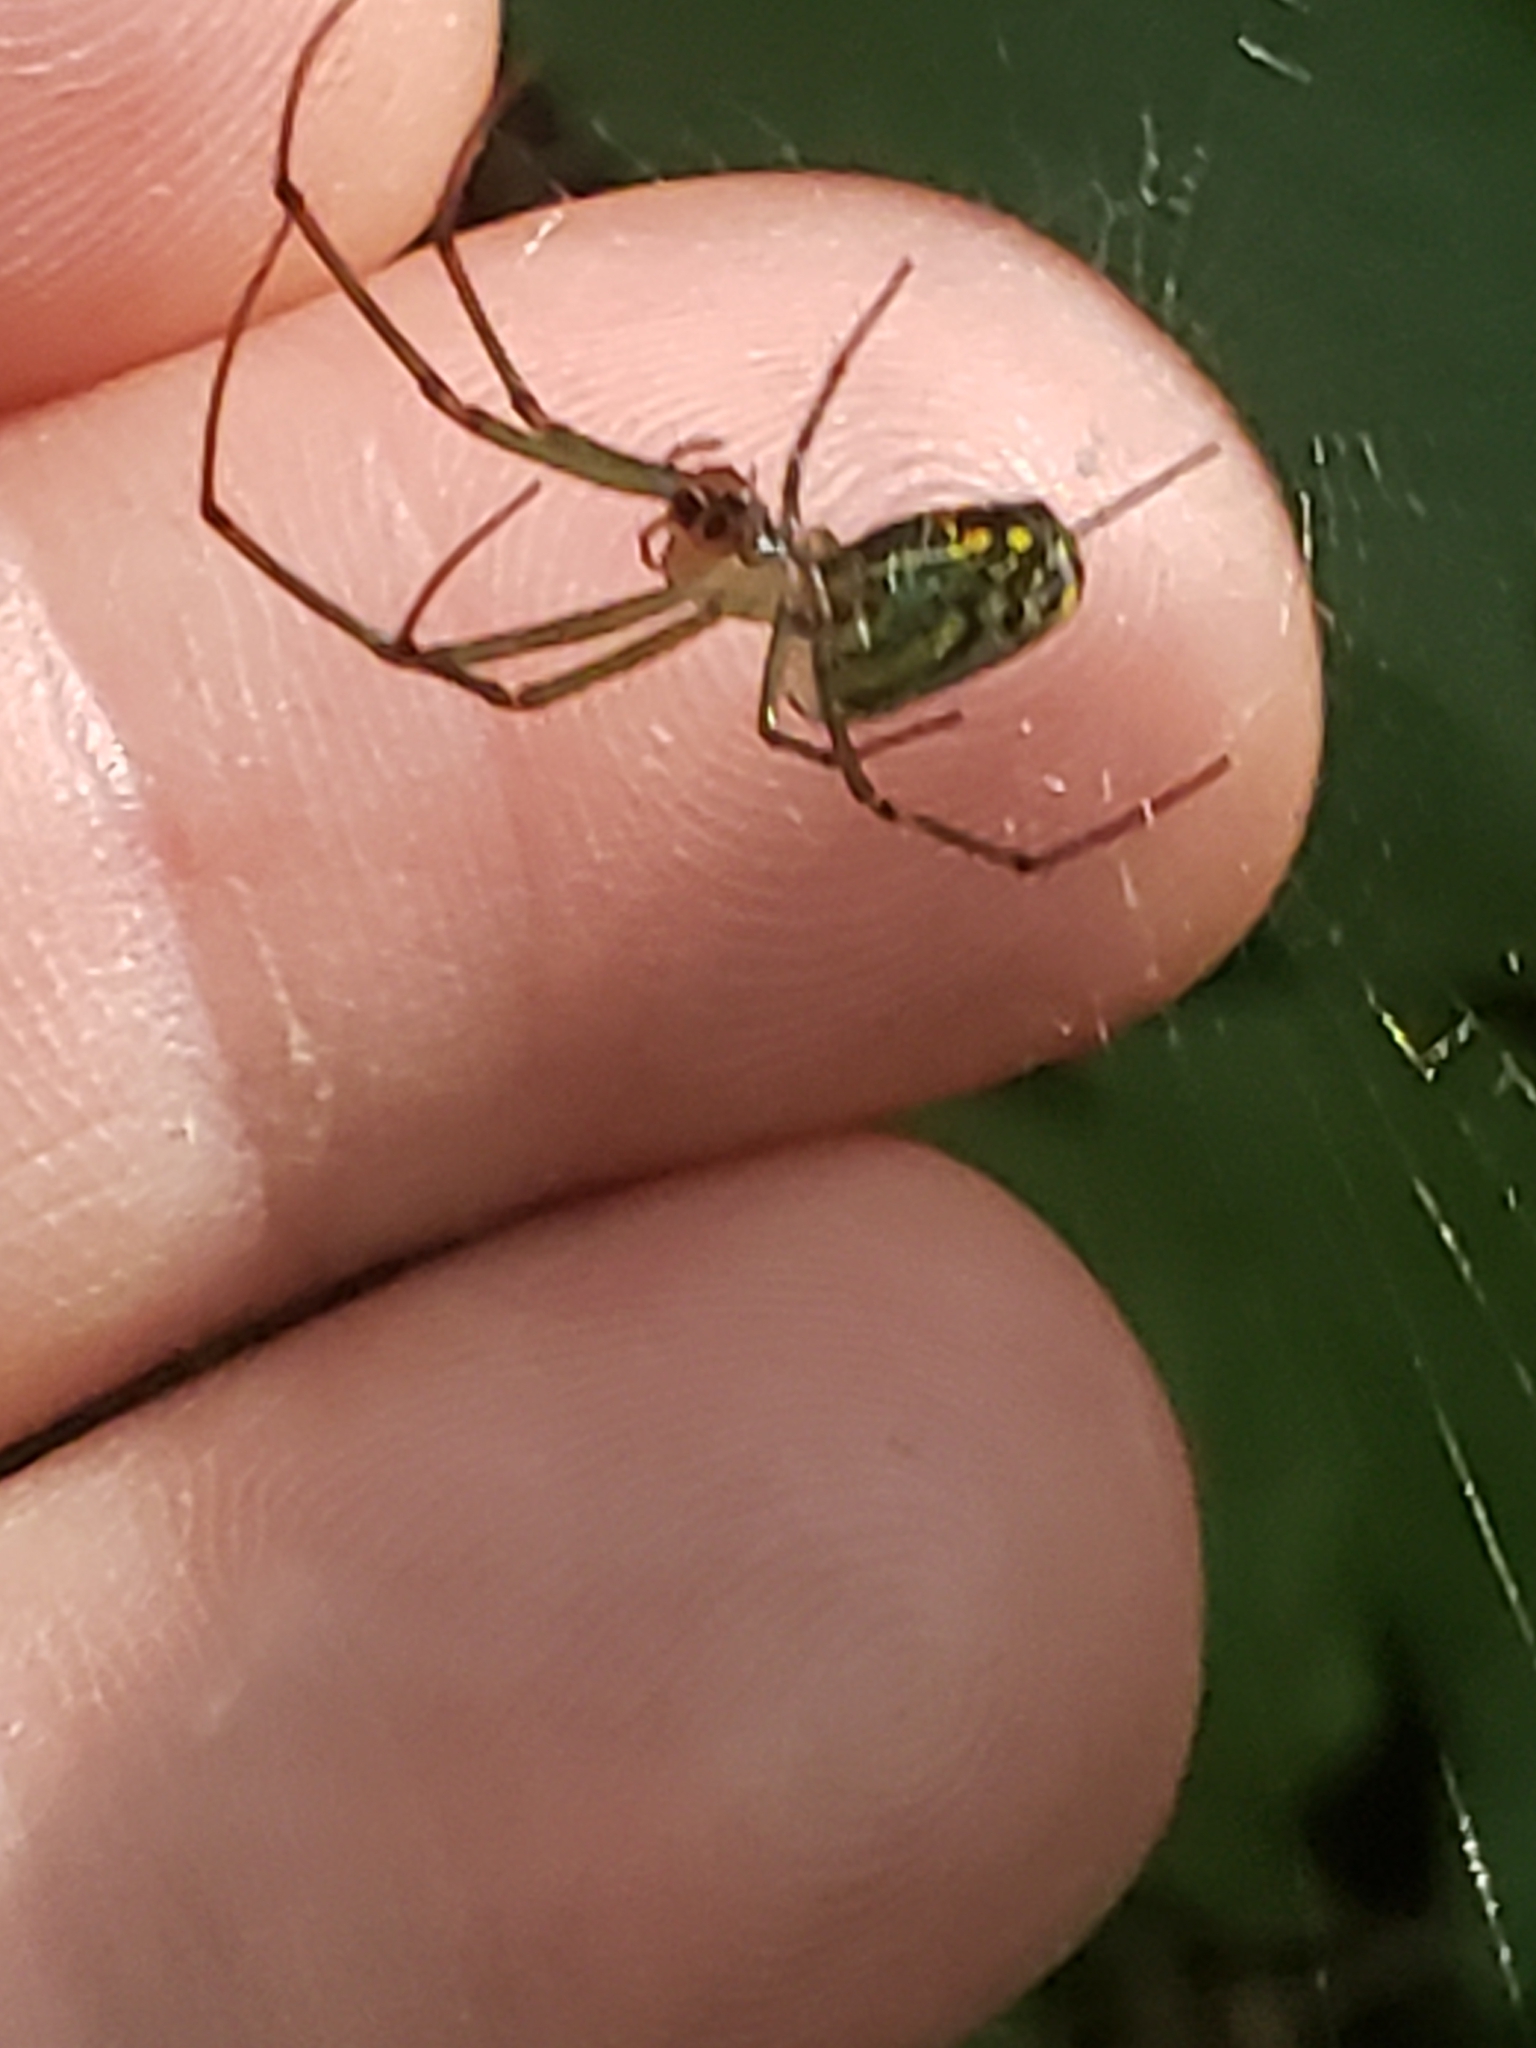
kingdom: Animalia
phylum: Arthropoda
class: Arachnida
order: Araneae
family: Tetragnathidae
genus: Leucauge
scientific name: Leucauge venusta
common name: Longjawed orb weavers
